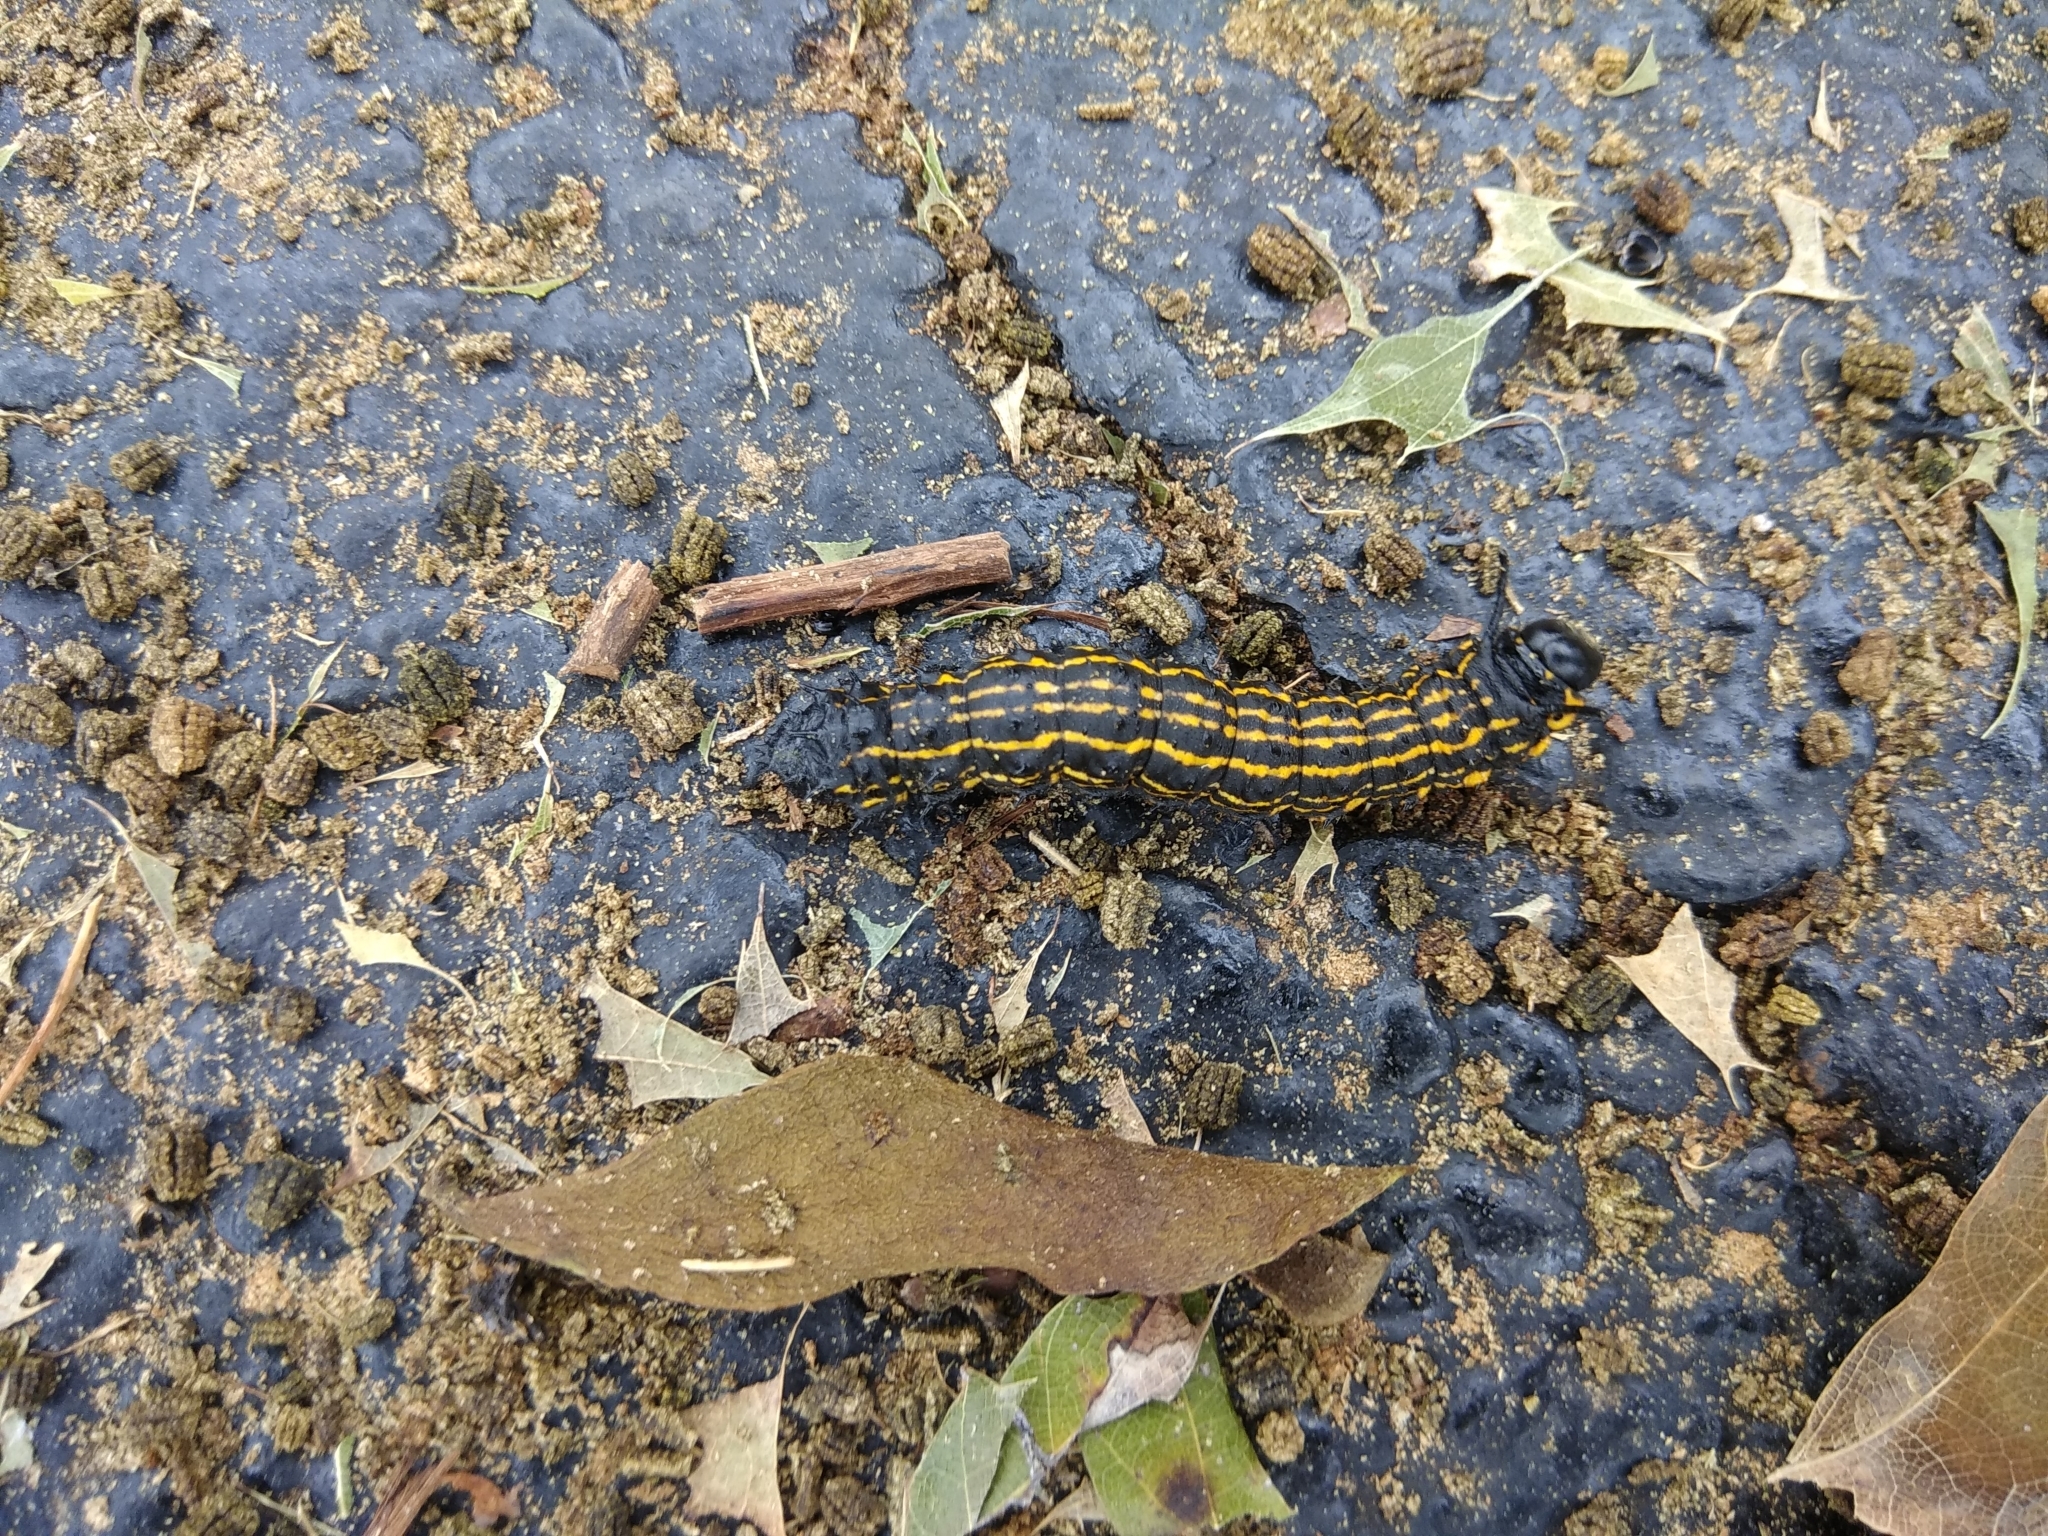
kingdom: Animalia
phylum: Arthropoda
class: Insecta
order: Lepidoptera
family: Saturniidae
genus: Anisota
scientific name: Anisota peigleri
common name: Peigler's oakworm moth
